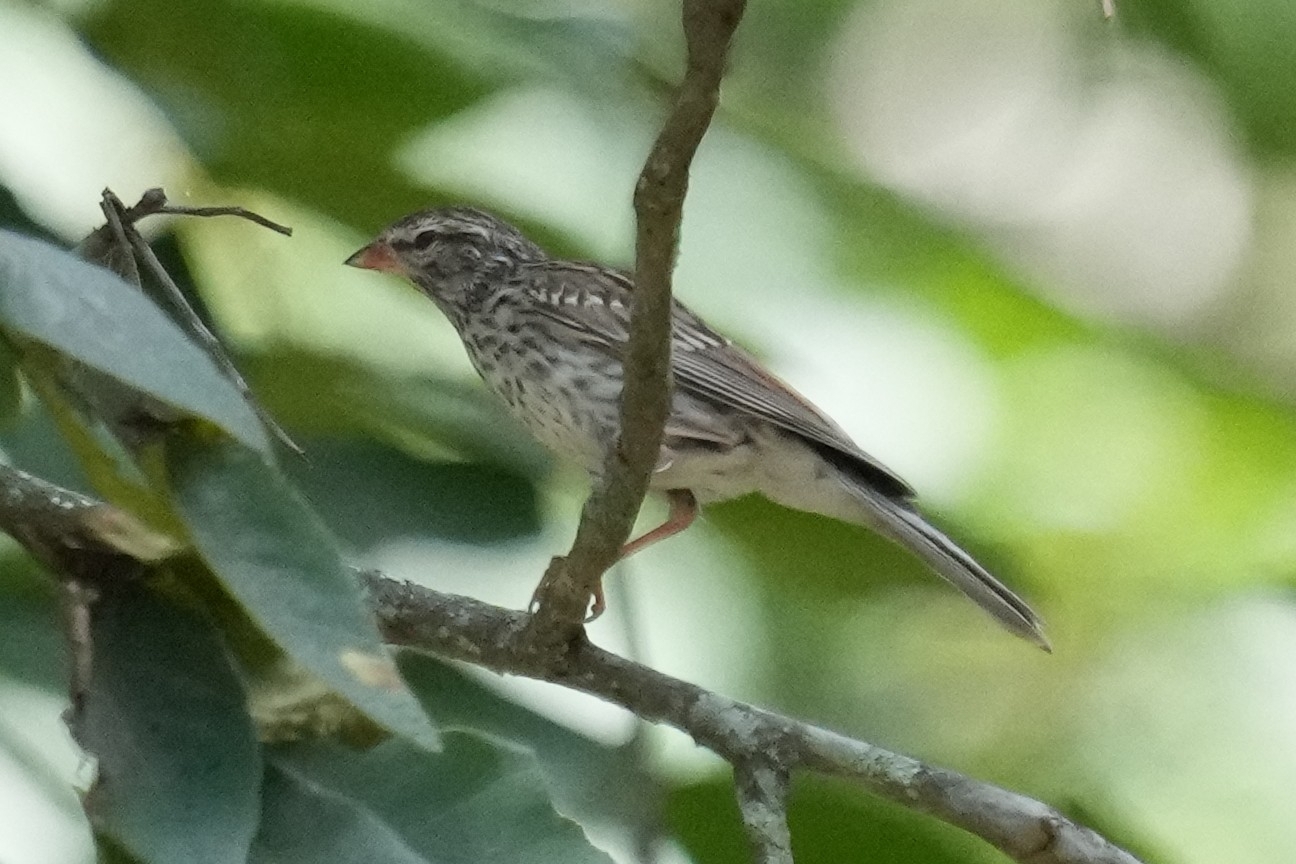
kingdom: Animalia
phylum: Chordata
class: Aves
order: Passeriformes
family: Passerellidae
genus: Spizella
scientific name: Spizella passerina
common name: Chipping sparrow
